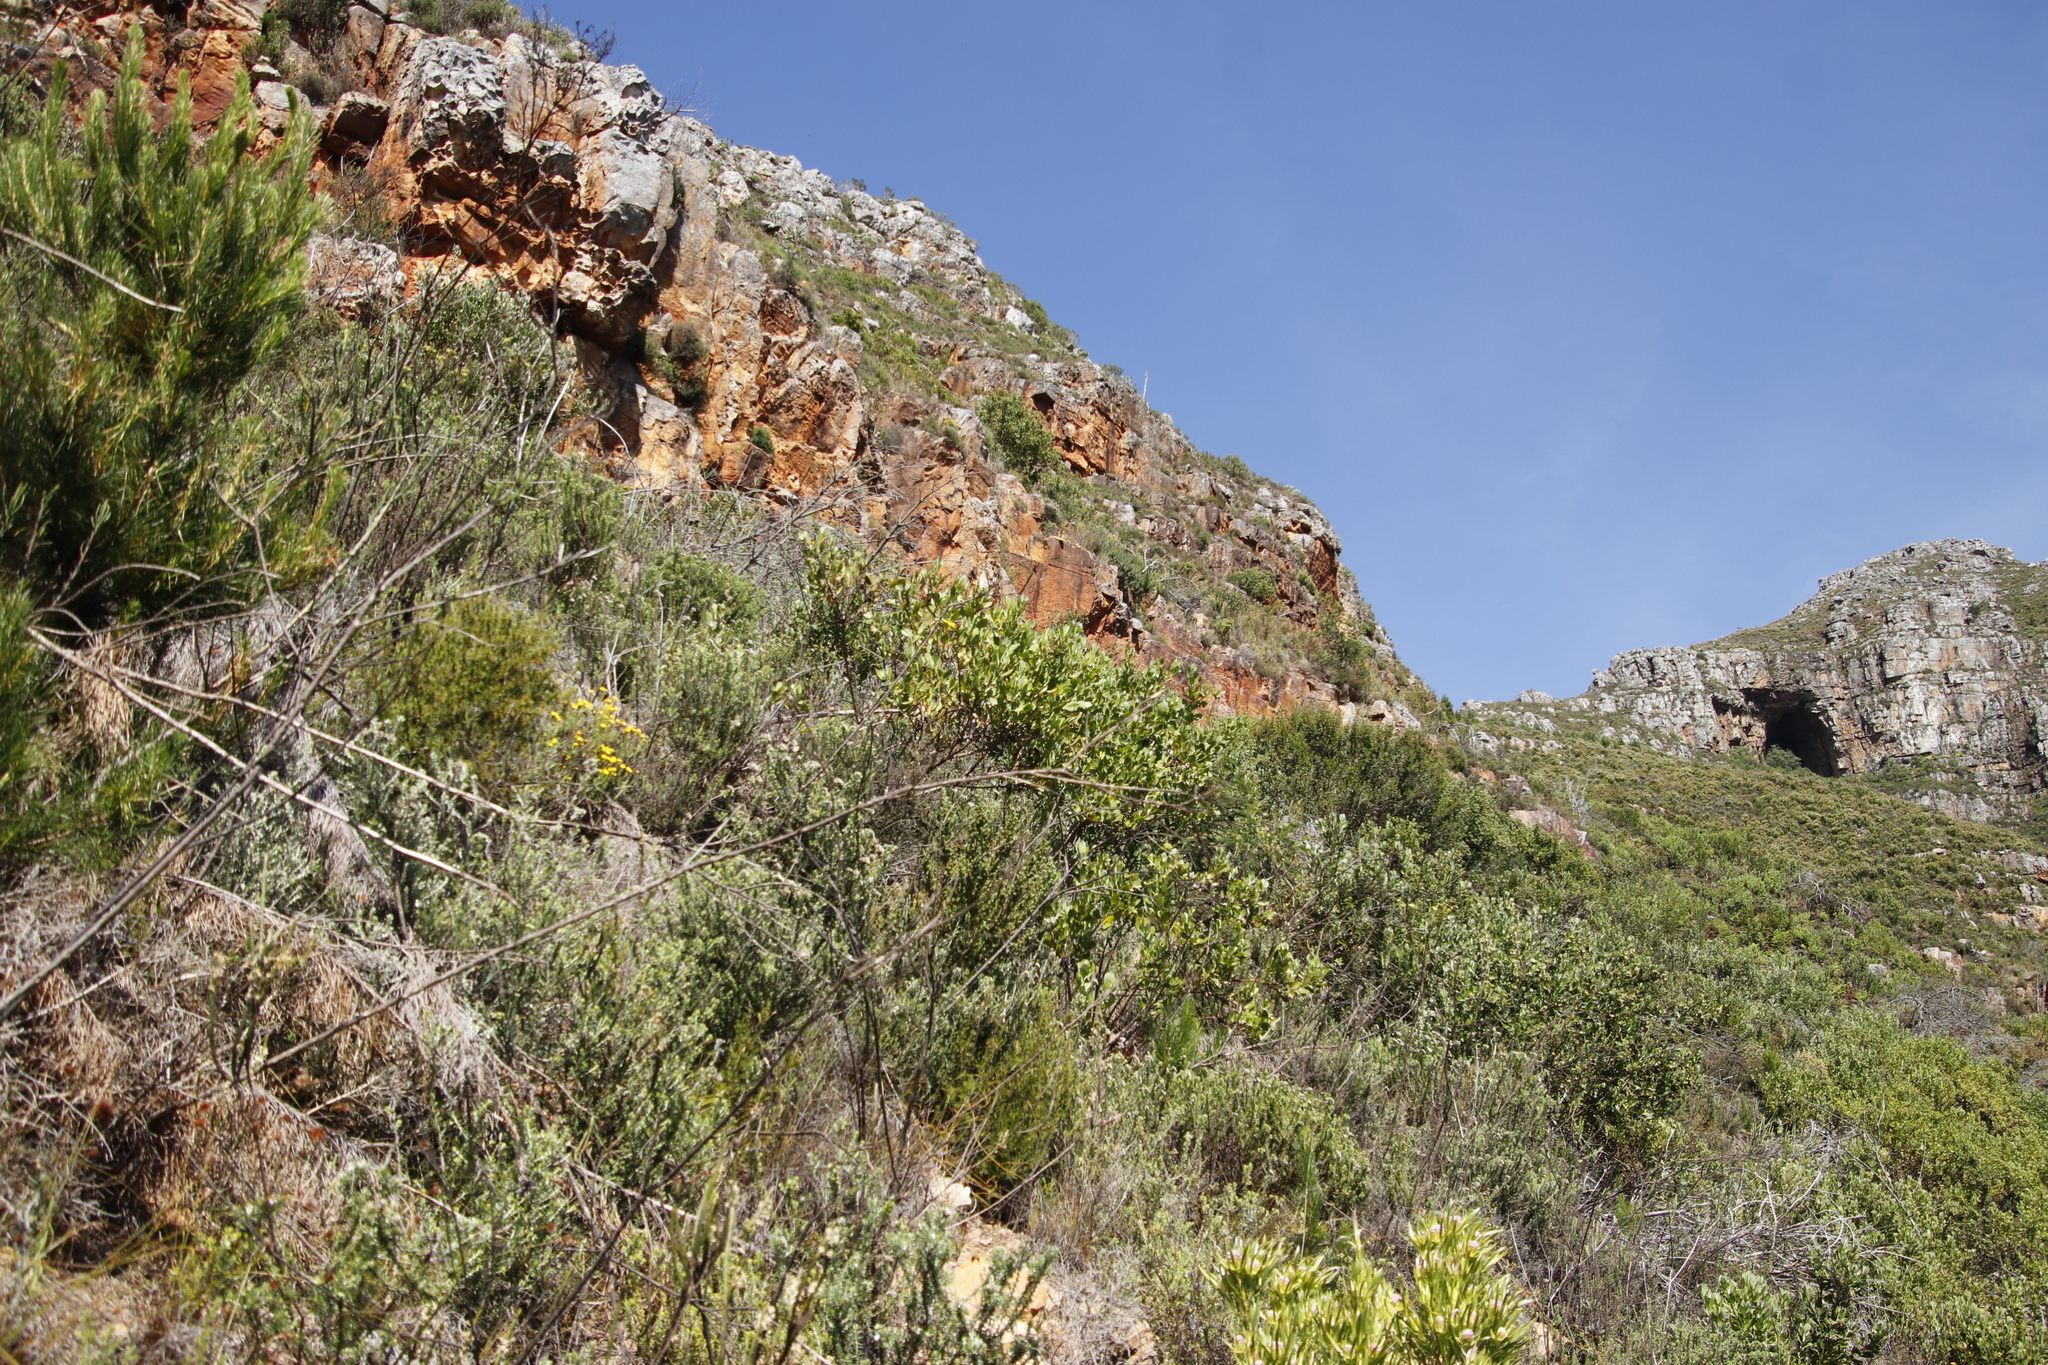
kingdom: Plantae
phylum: Tracheophyta
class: Magnoliopsida
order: Asterales
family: Asteraceae
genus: Osteospermum
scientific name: Osteospermum moniliferum
